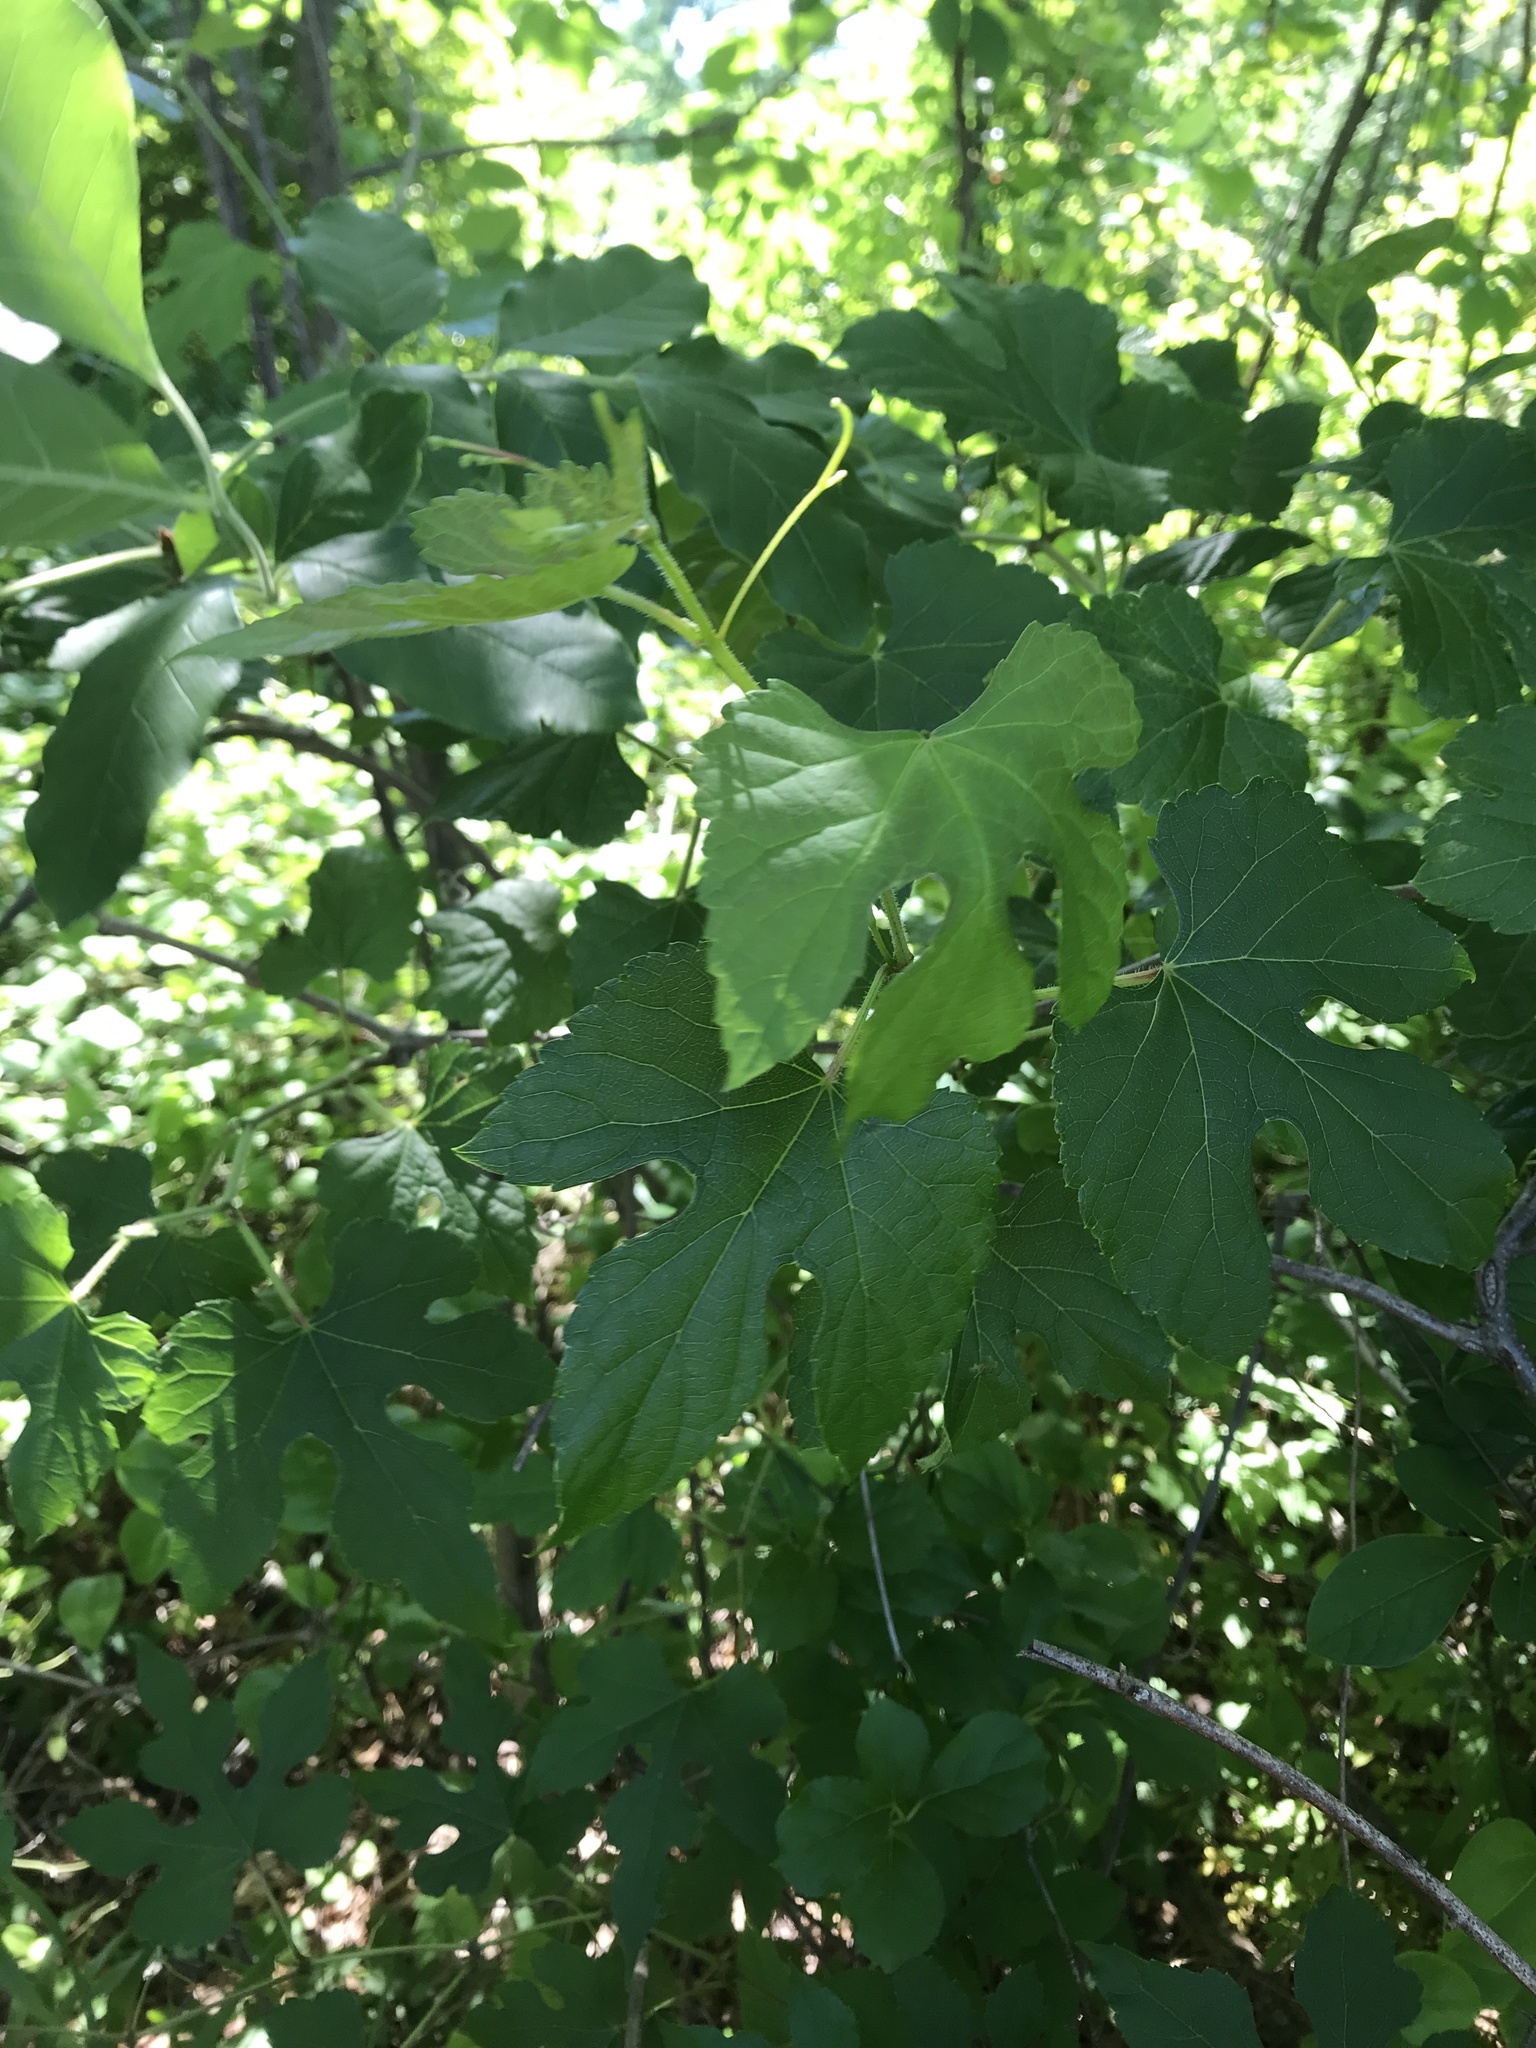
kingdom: Plantae
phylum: Tracheophyta
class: Magnoliopsida
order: Vitales
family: Vitaceae
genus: Ampelopsis
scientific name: Ampelopsis glandulosa
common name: Amur peppervine
